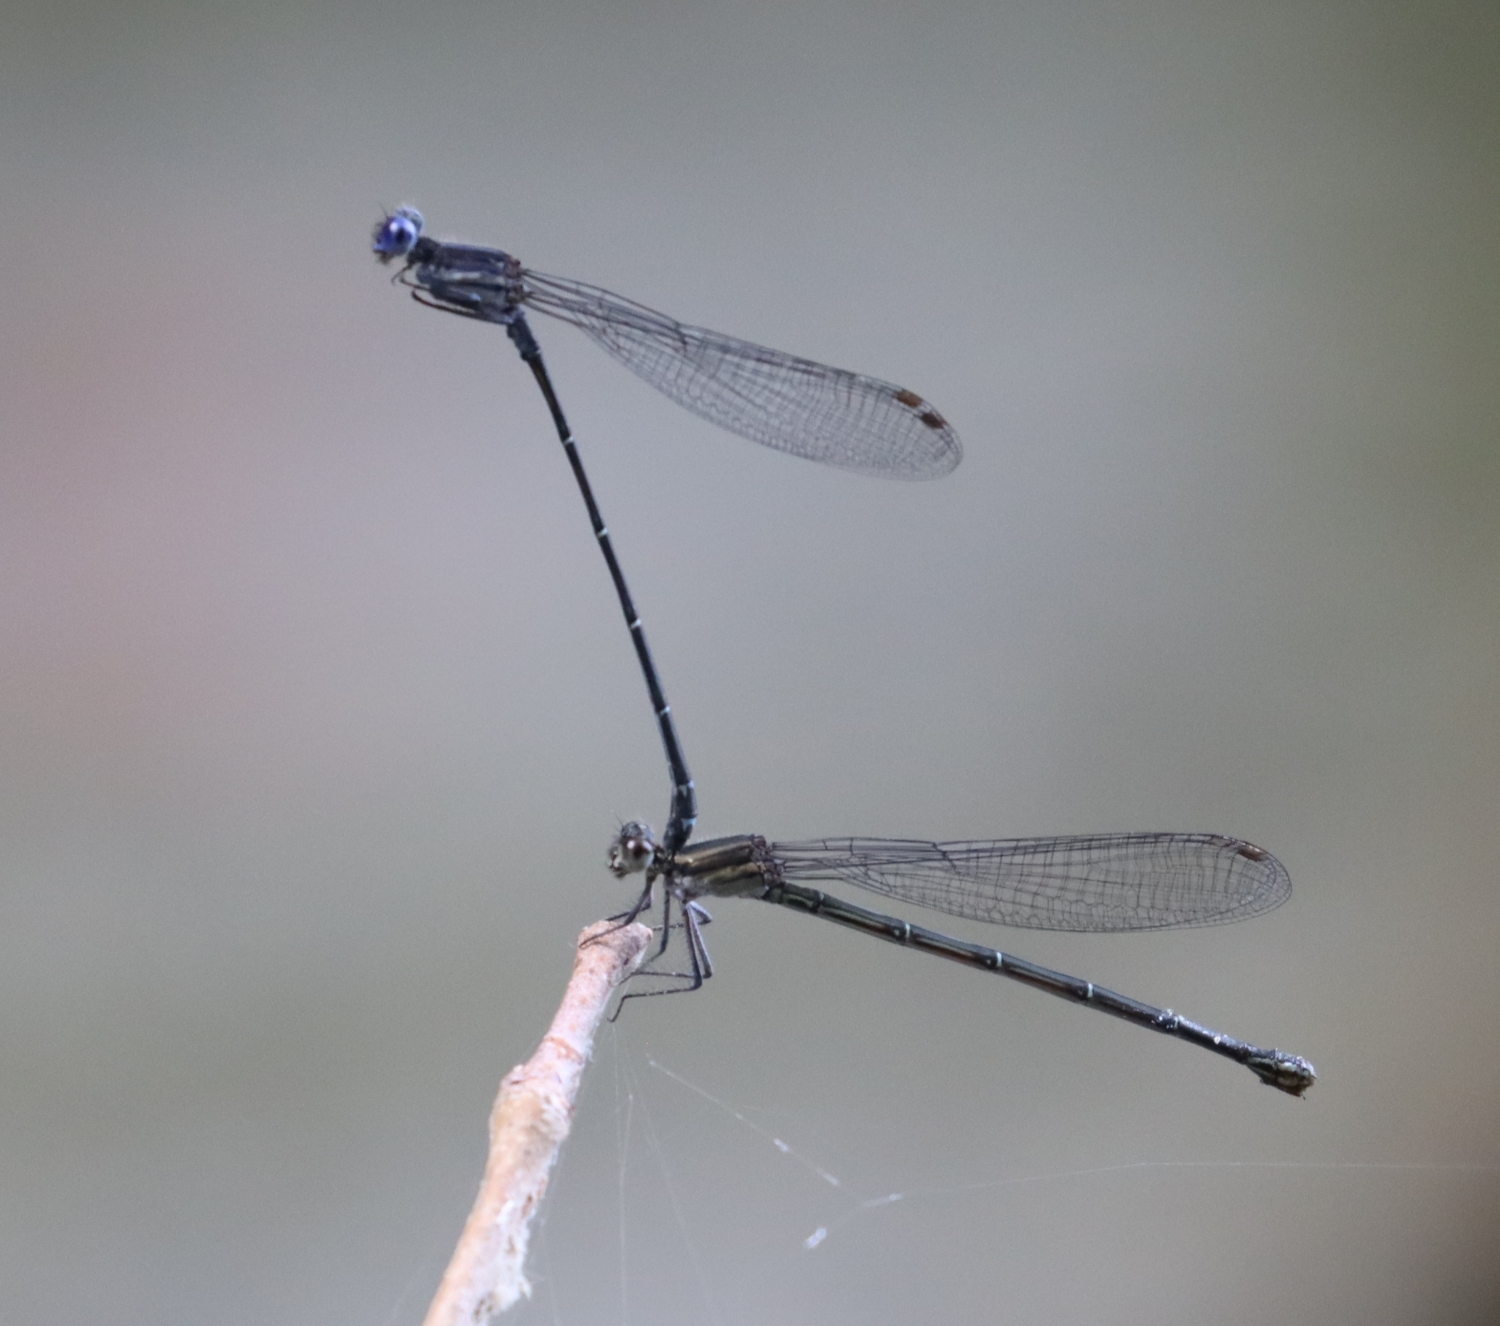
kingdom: Animalia
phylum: Arthropoda
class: Insecta
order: Odonata
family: Coenagrionidae
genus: Argia
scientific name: Argia translata
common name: Dusky dancer
